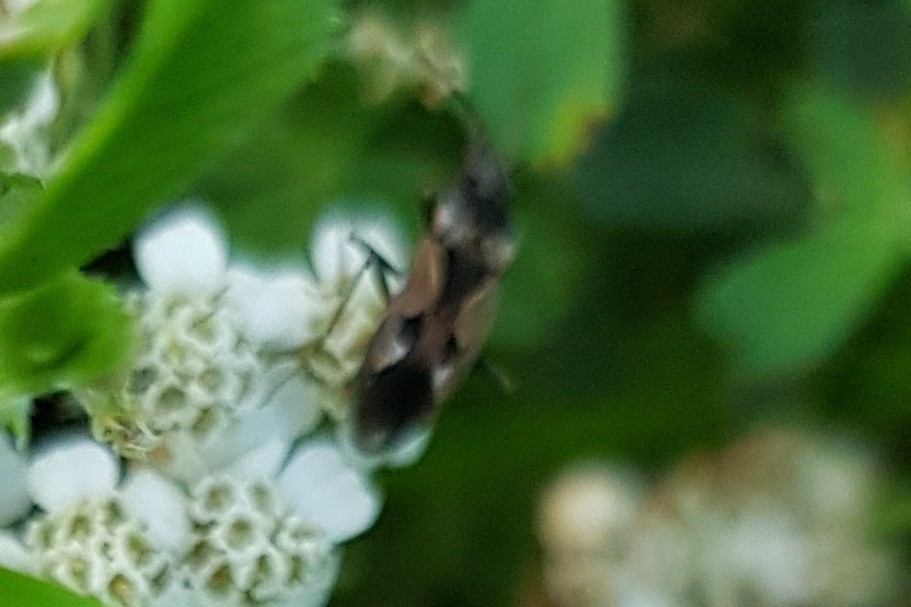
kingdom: Animalia
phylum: Arthropoda
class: Insecta
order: Hemiptera
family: Rhyparochromidae
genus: Rhyparochromus
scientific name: Rhyparochromus vulgaris
